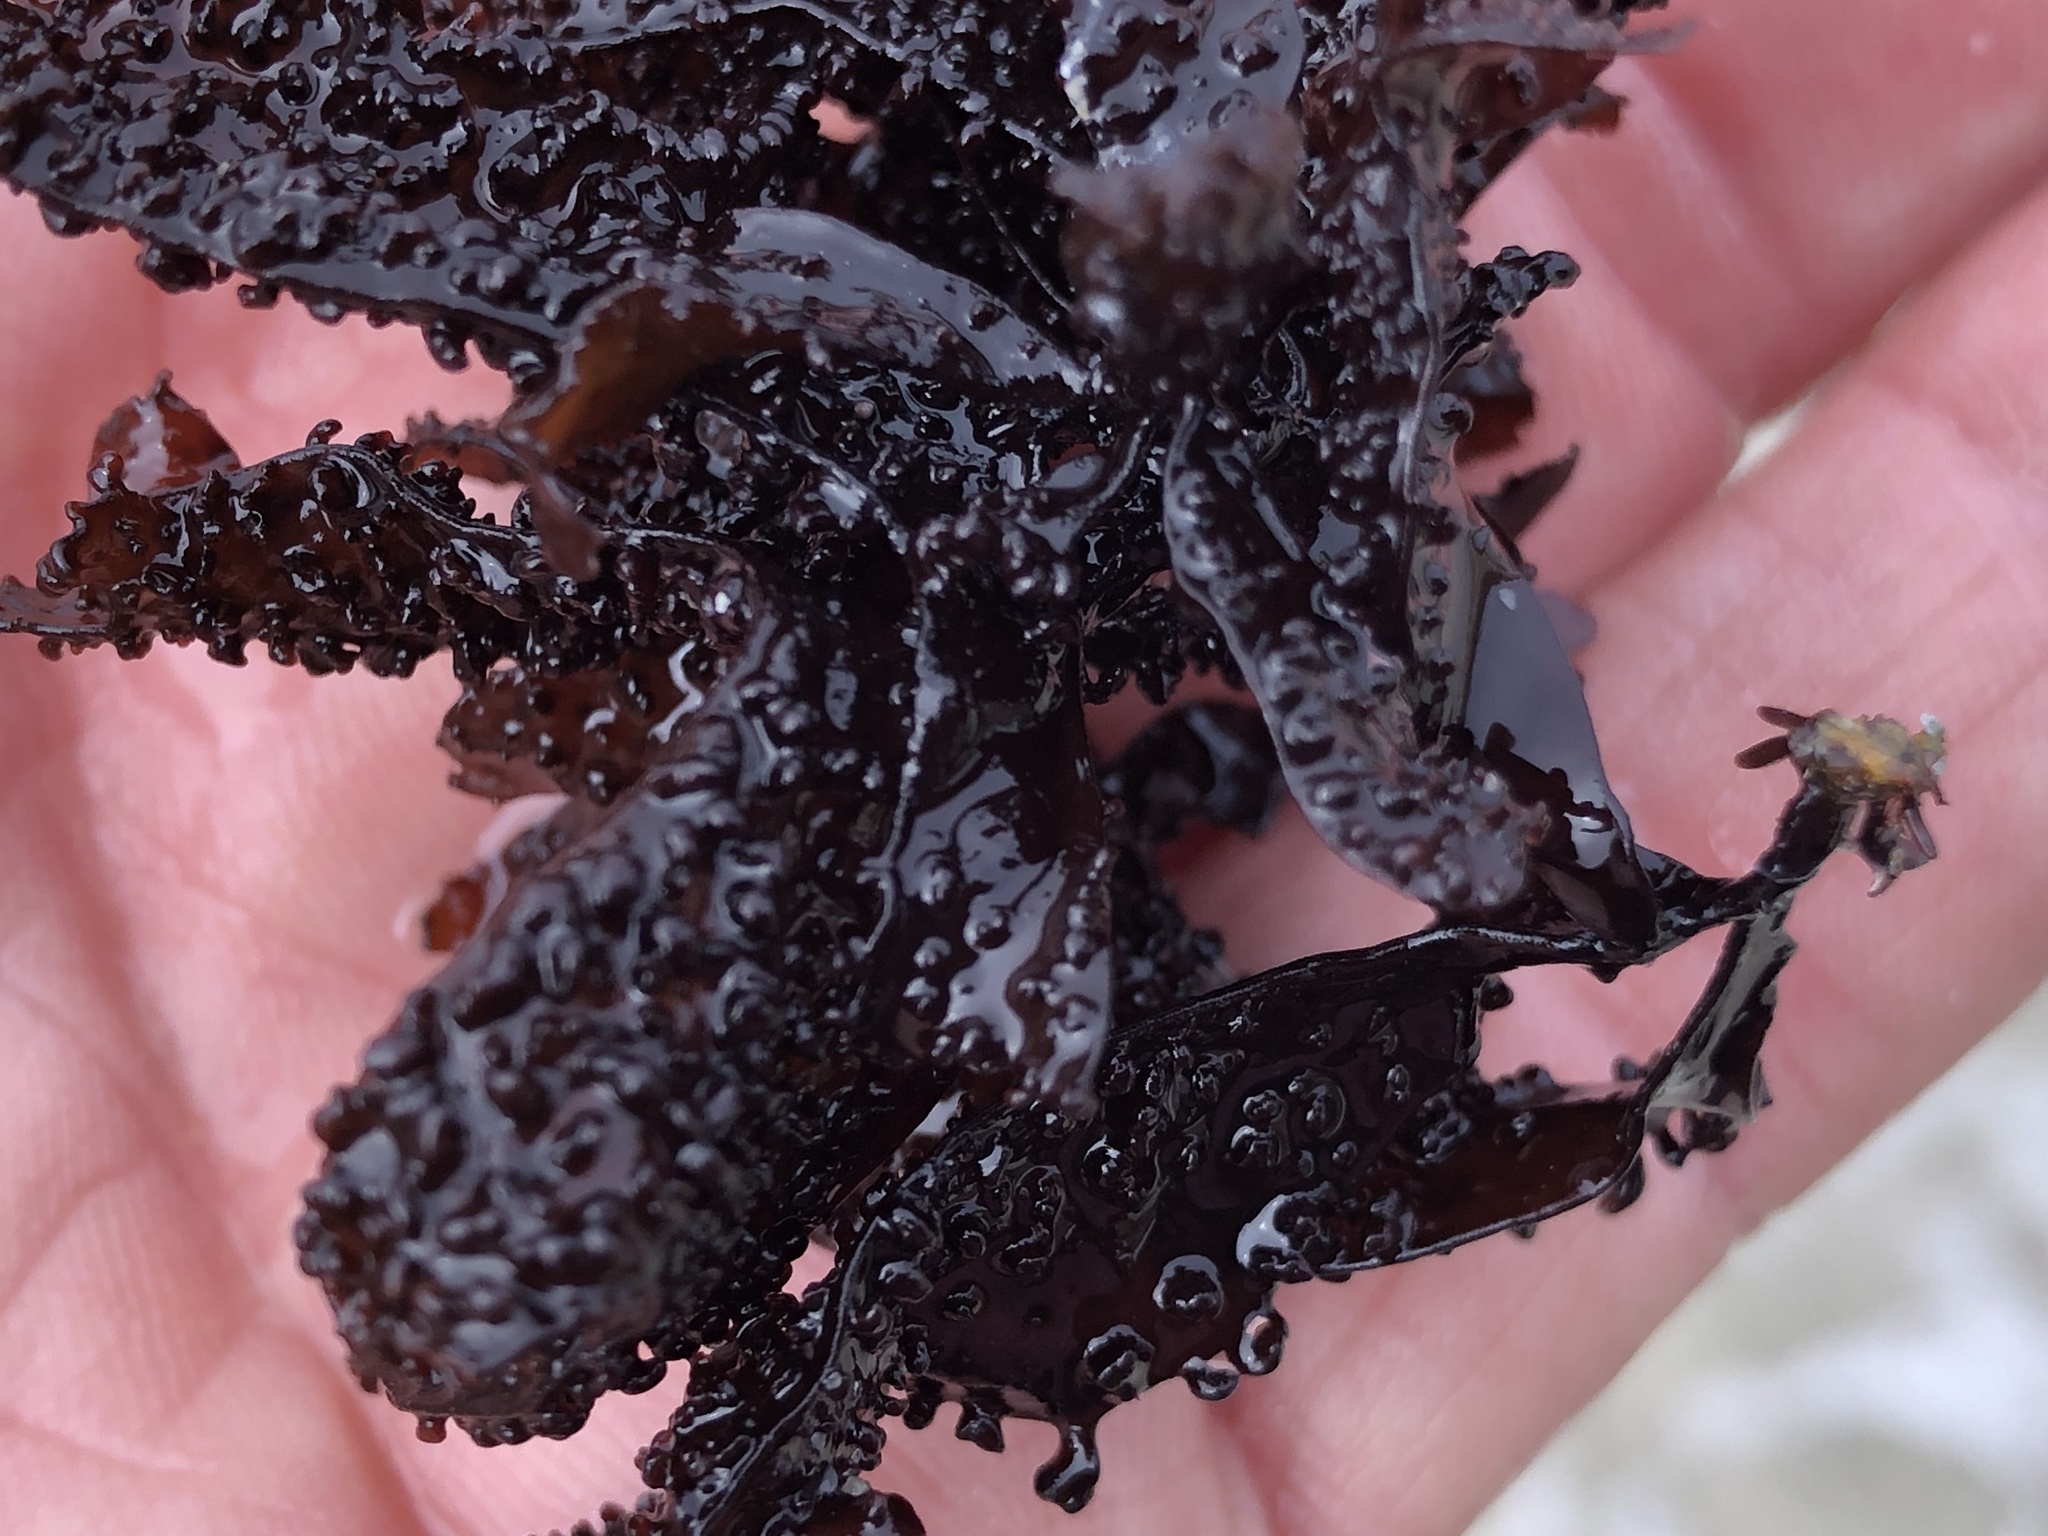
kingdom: Plantae
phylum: Rhodophyta
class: Florideophyceae
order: Gigartinales
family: Phyllophoraceae
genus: Mastocarpus
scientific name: Mastocarpus papillatus
